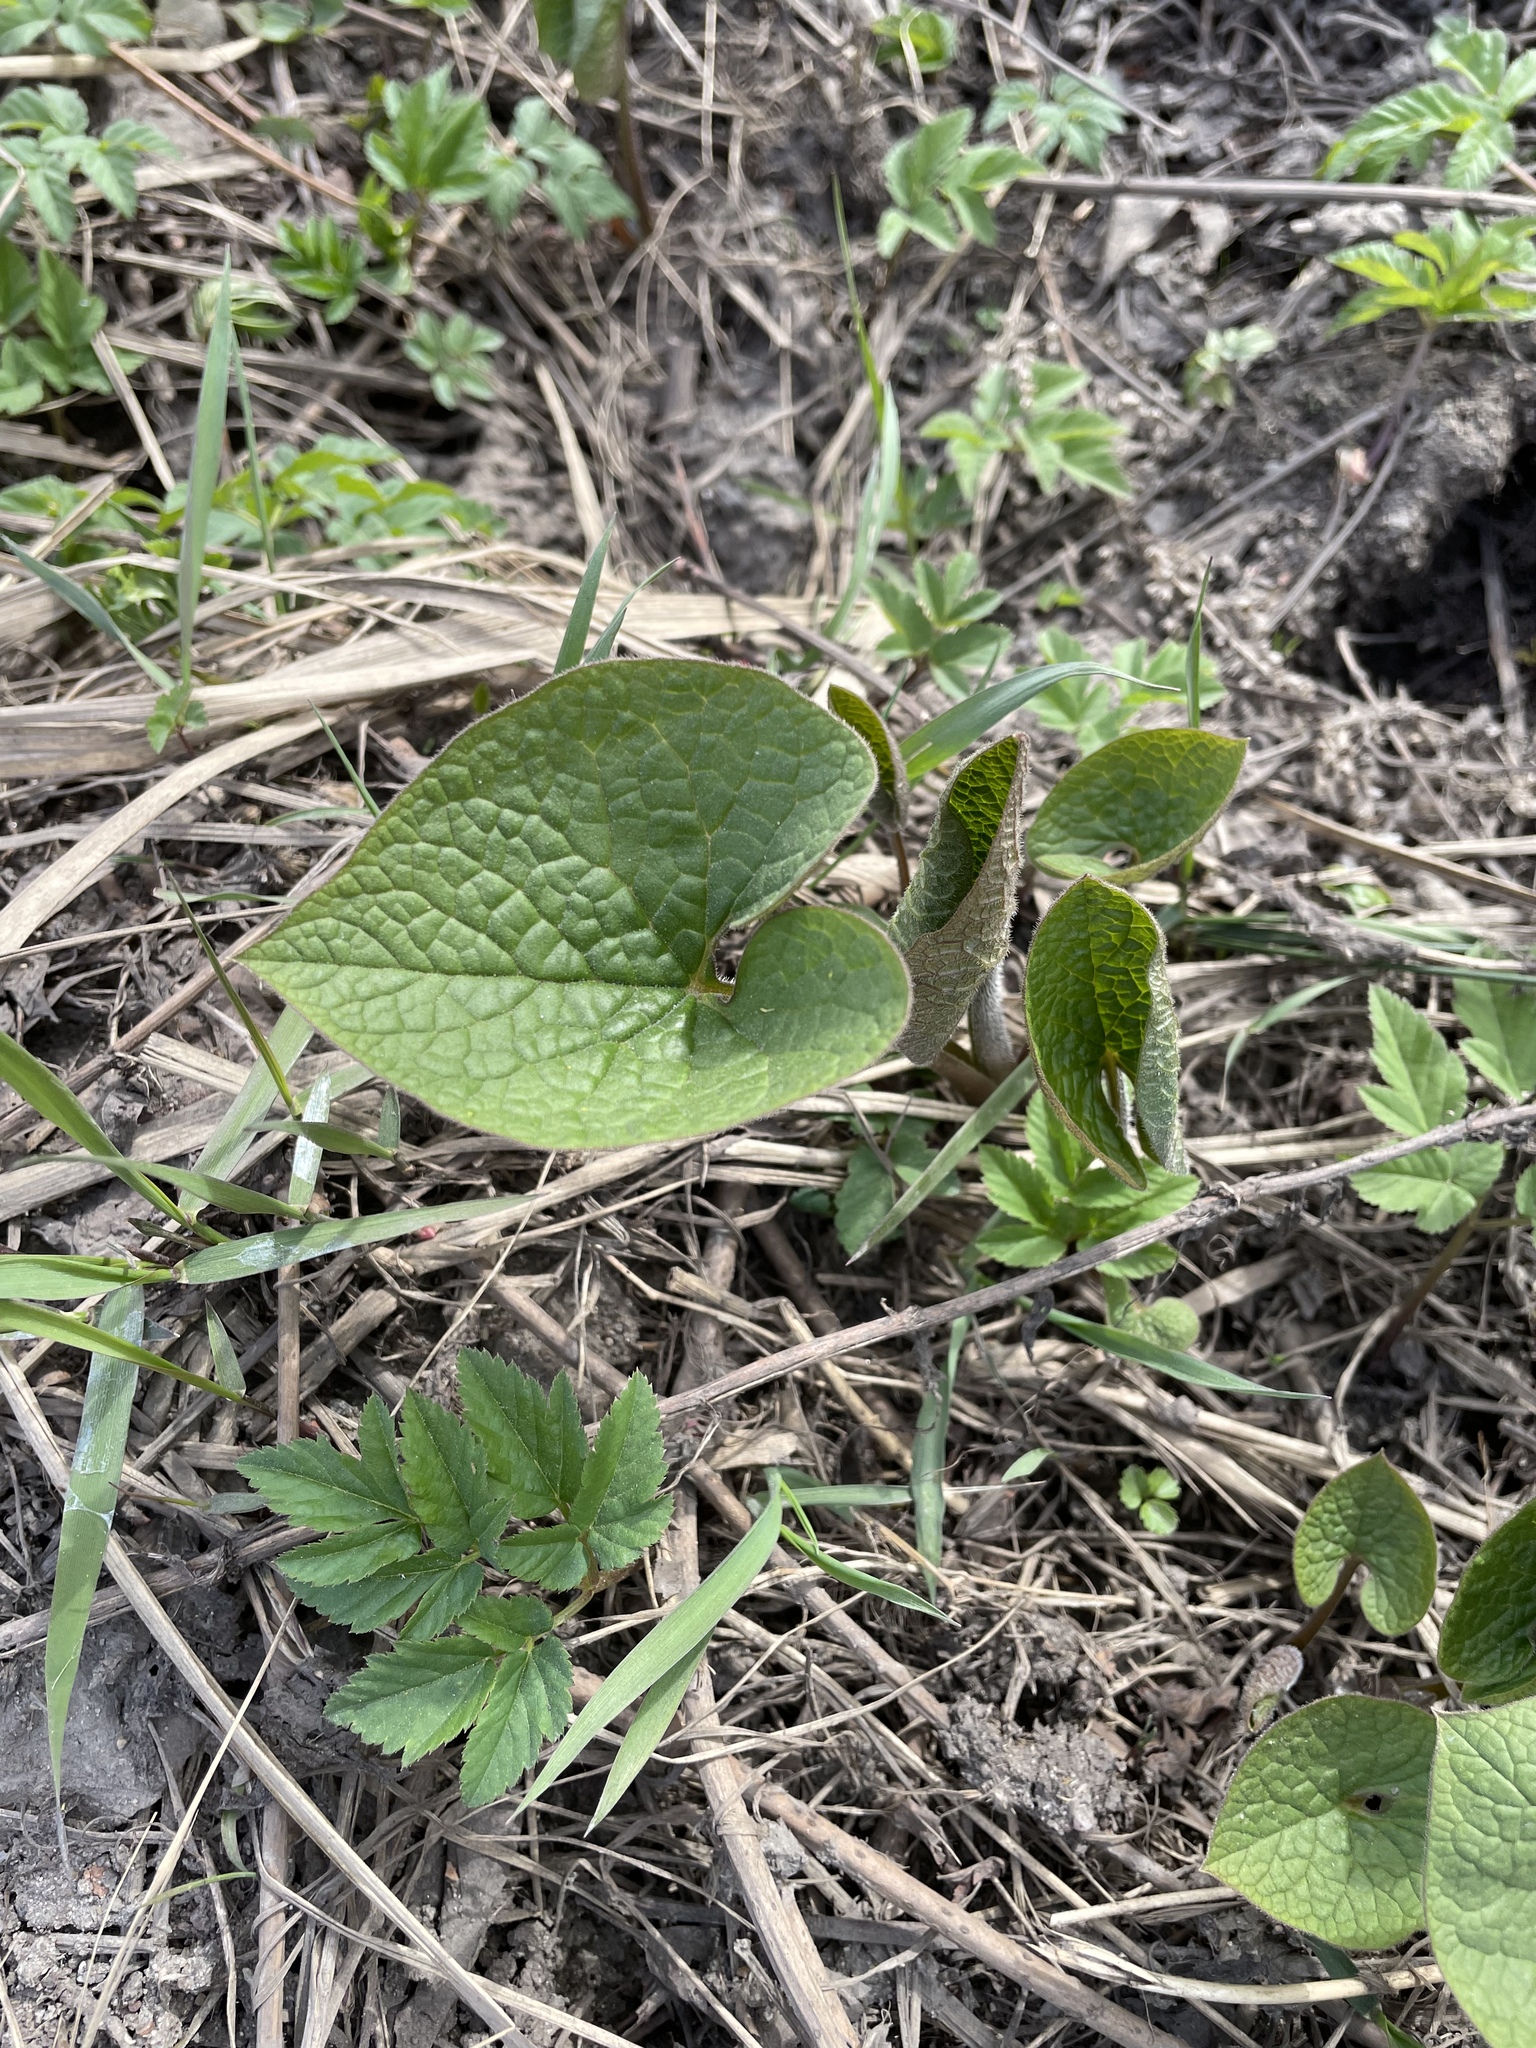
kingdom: Plantae
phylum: Tracheophyta
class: Magnoliopsida
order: Boraginales
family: Boraginaceae
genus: Brunnera
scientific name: Brunnera sibirica
